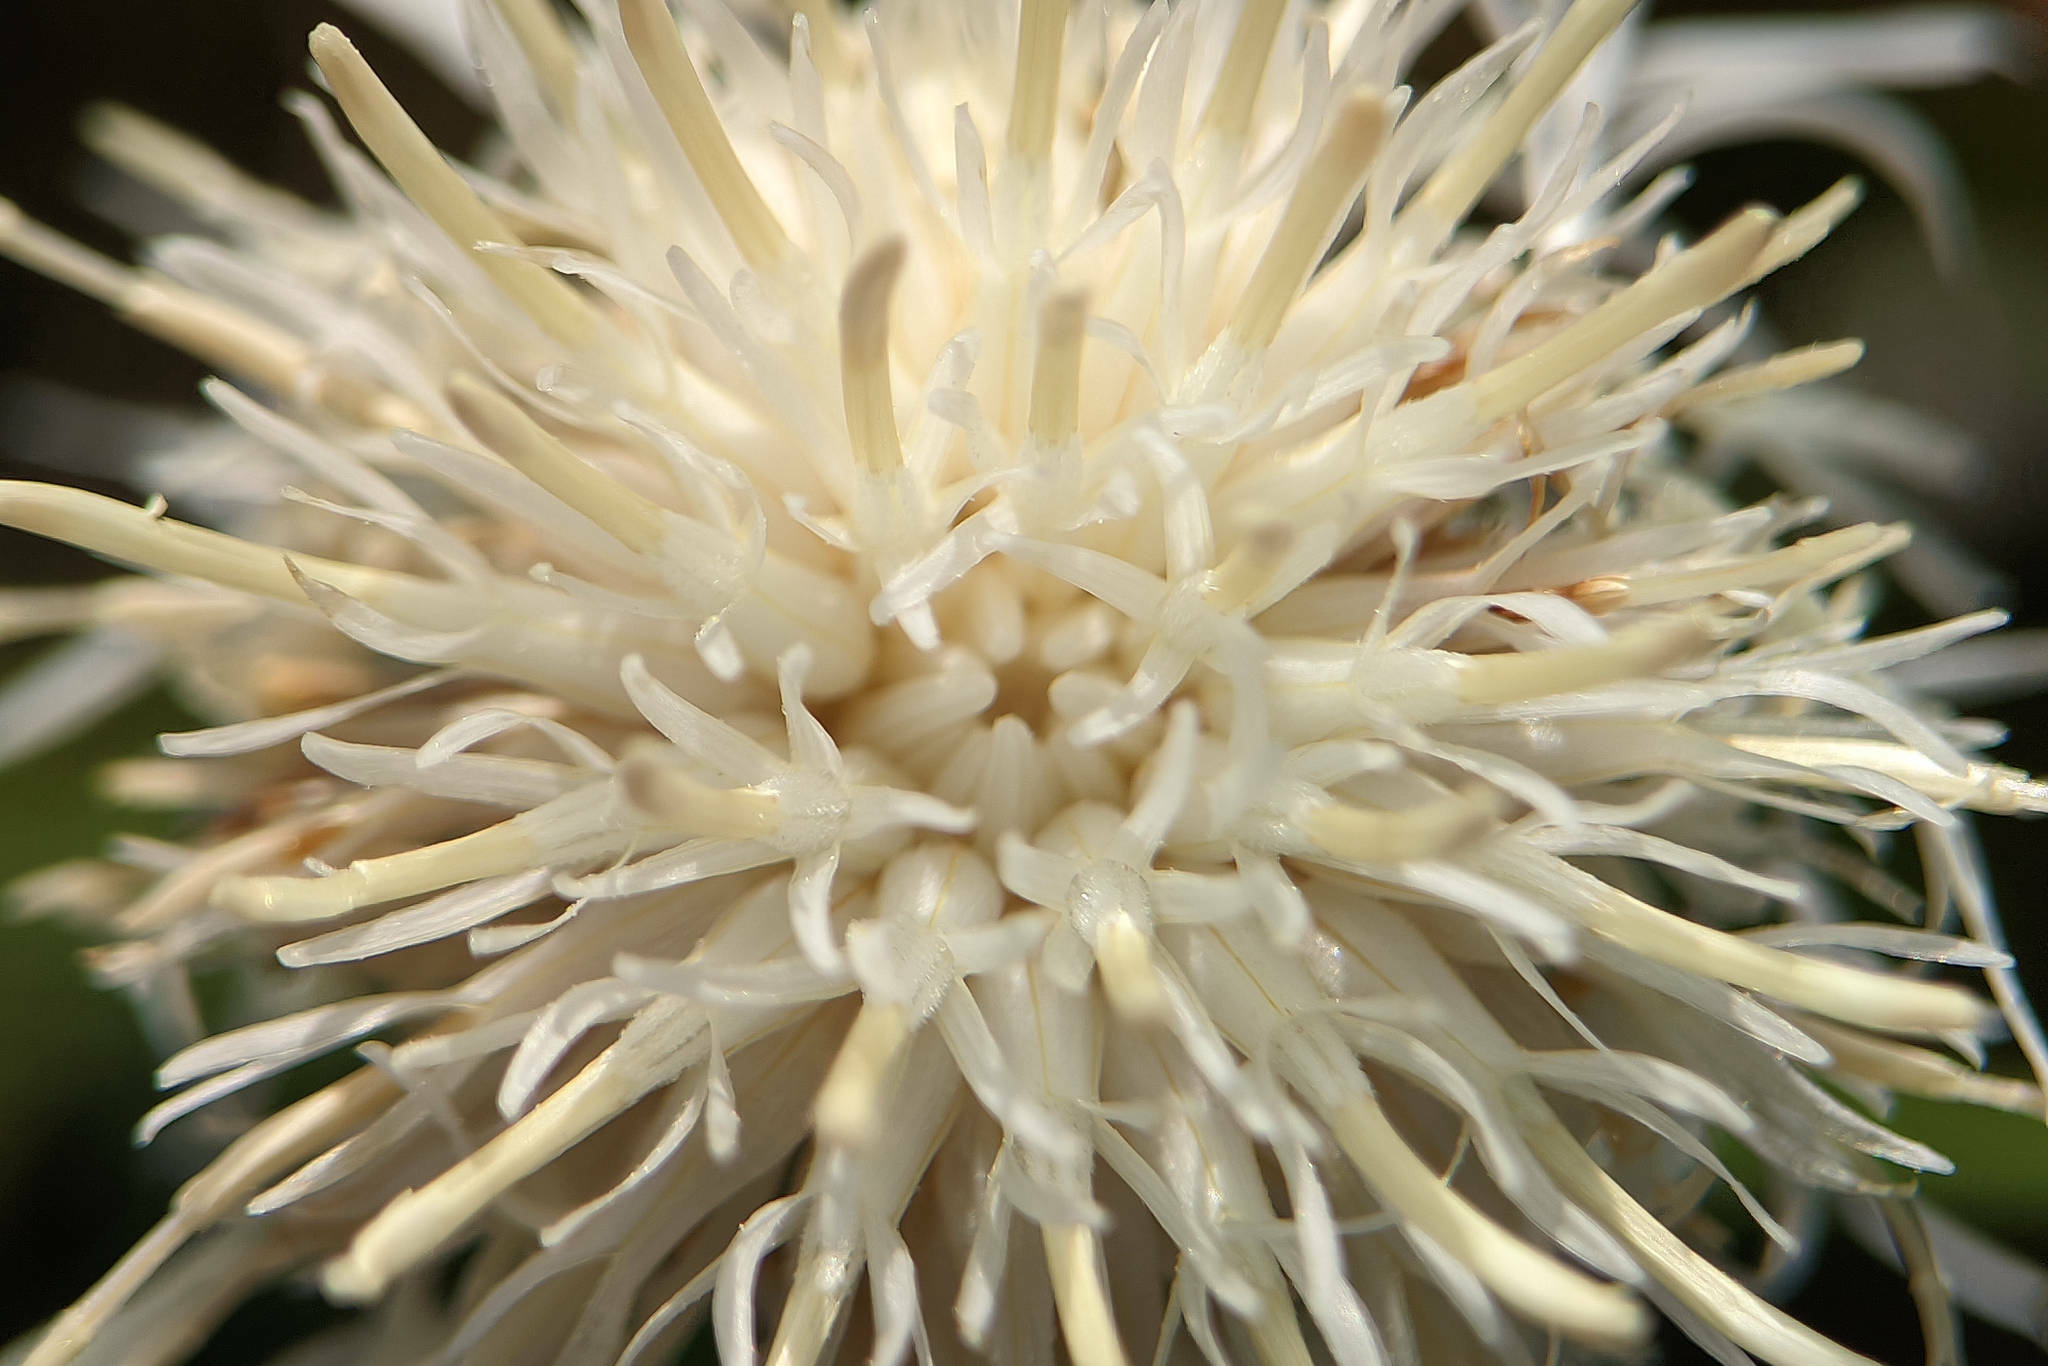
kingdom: Plantae
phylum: Tracheophyta
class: Magnoliopsida
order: Asterales
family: Asteraceae
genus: Centaurea
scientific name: Centaurea scabiosa
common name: Greater knapweed
